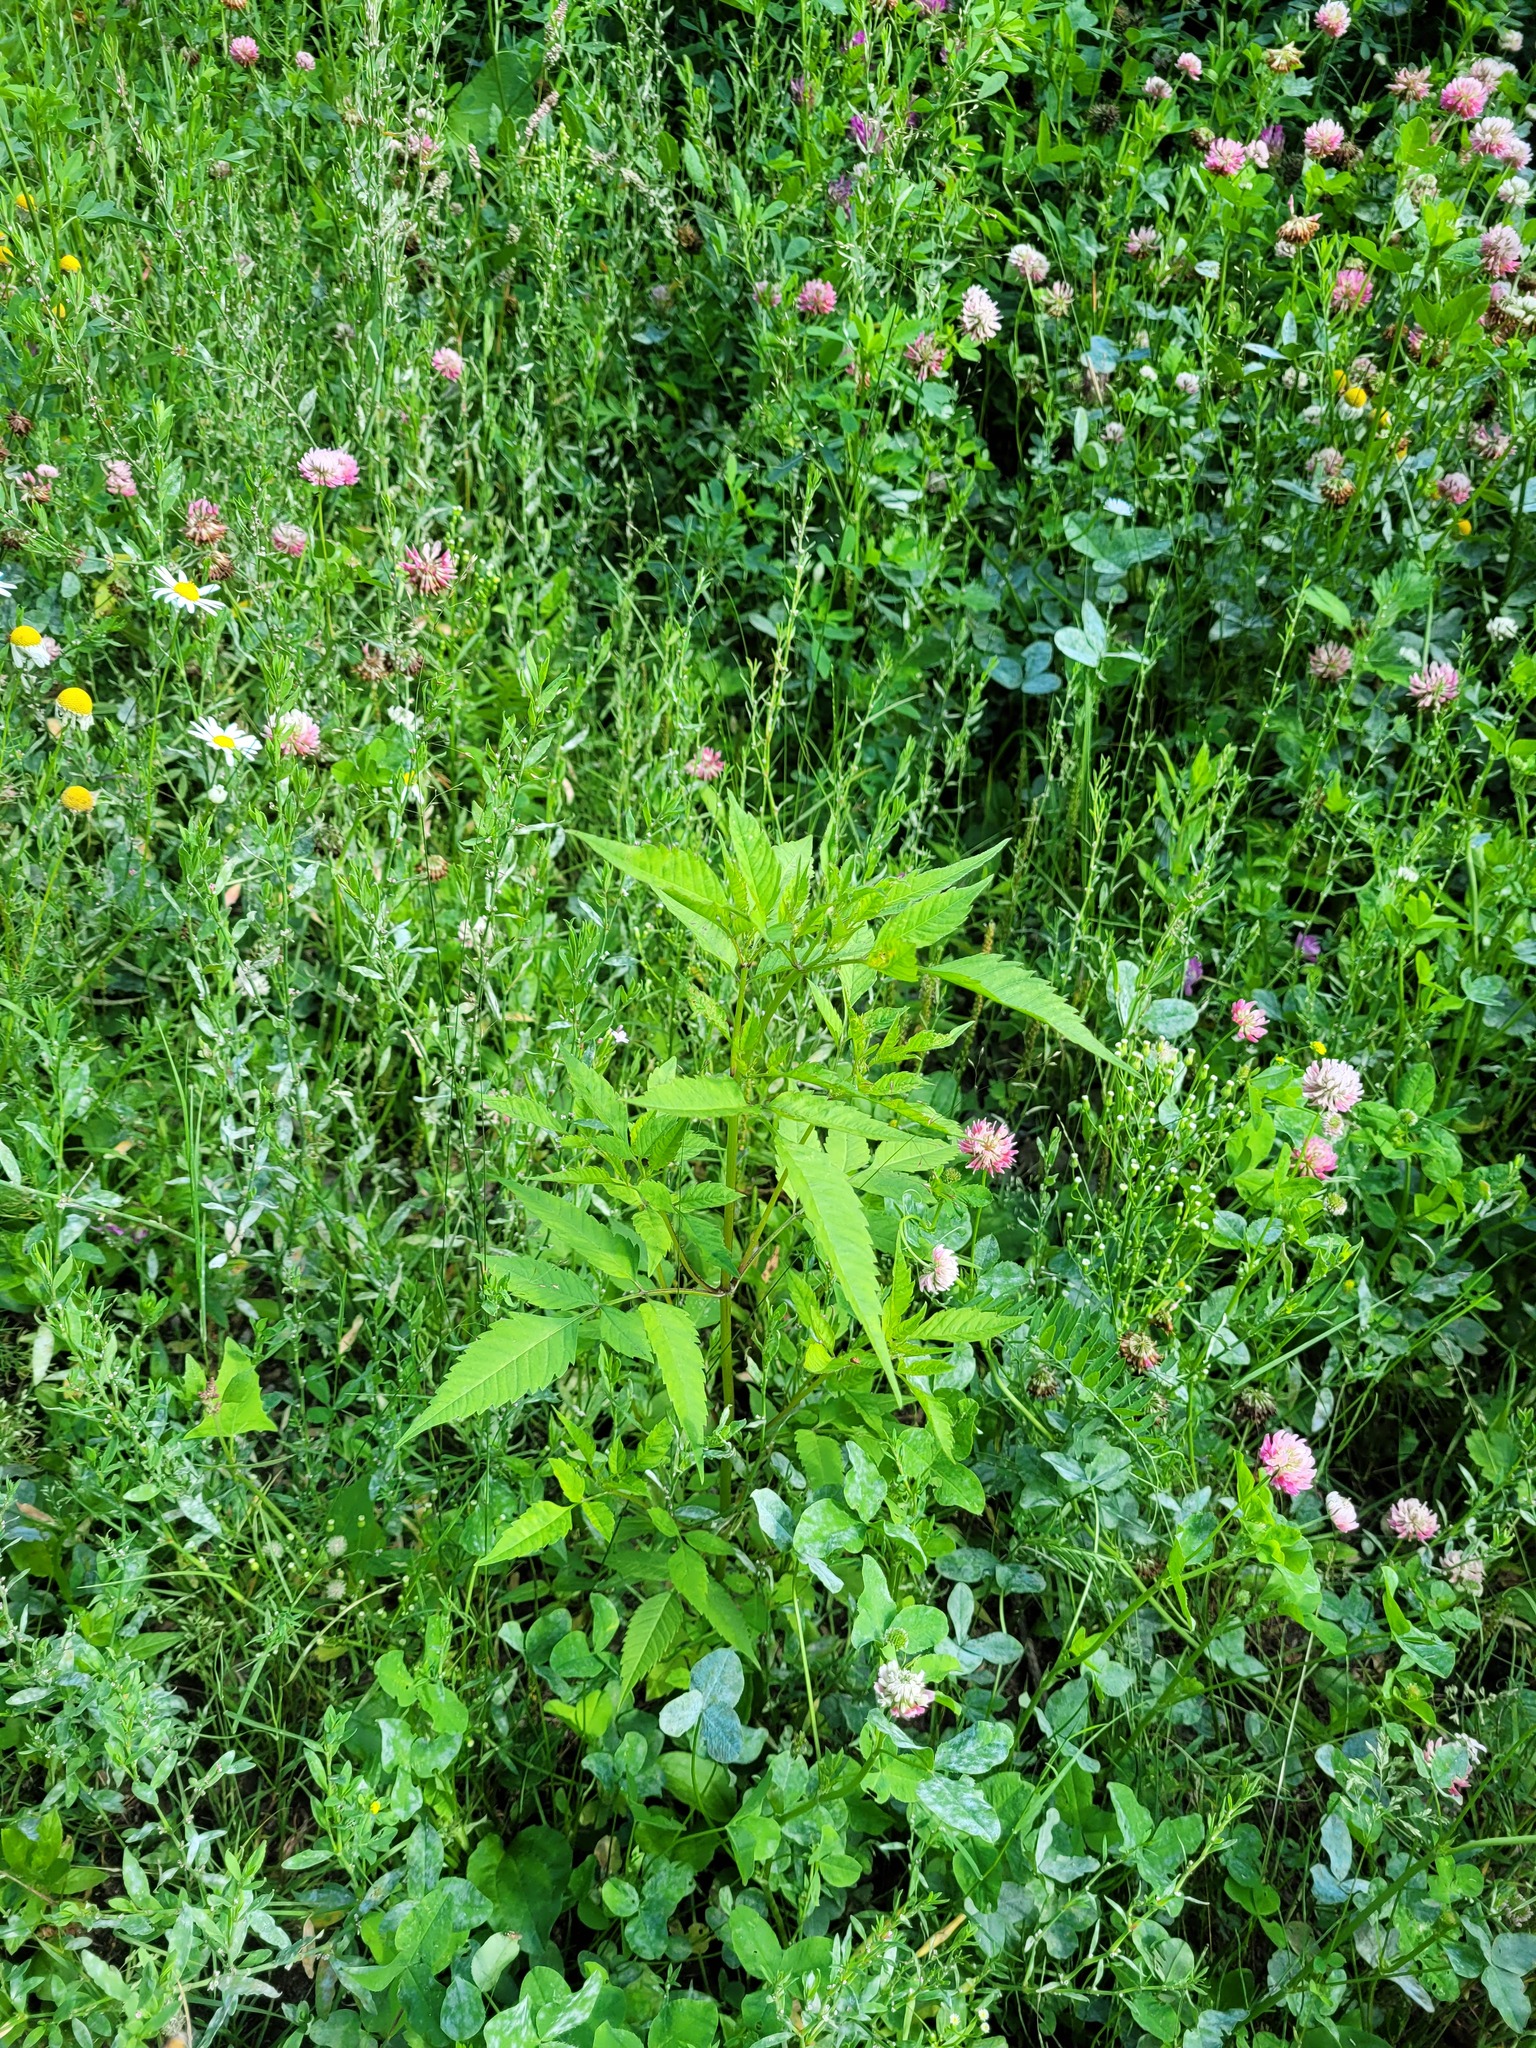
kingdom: Plantae
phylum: Tracheophyta
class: Magnoliopsida
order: Asterales
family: Asteraceae
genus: Bidens
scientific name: Bidens frondosa
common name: Beggarticks
